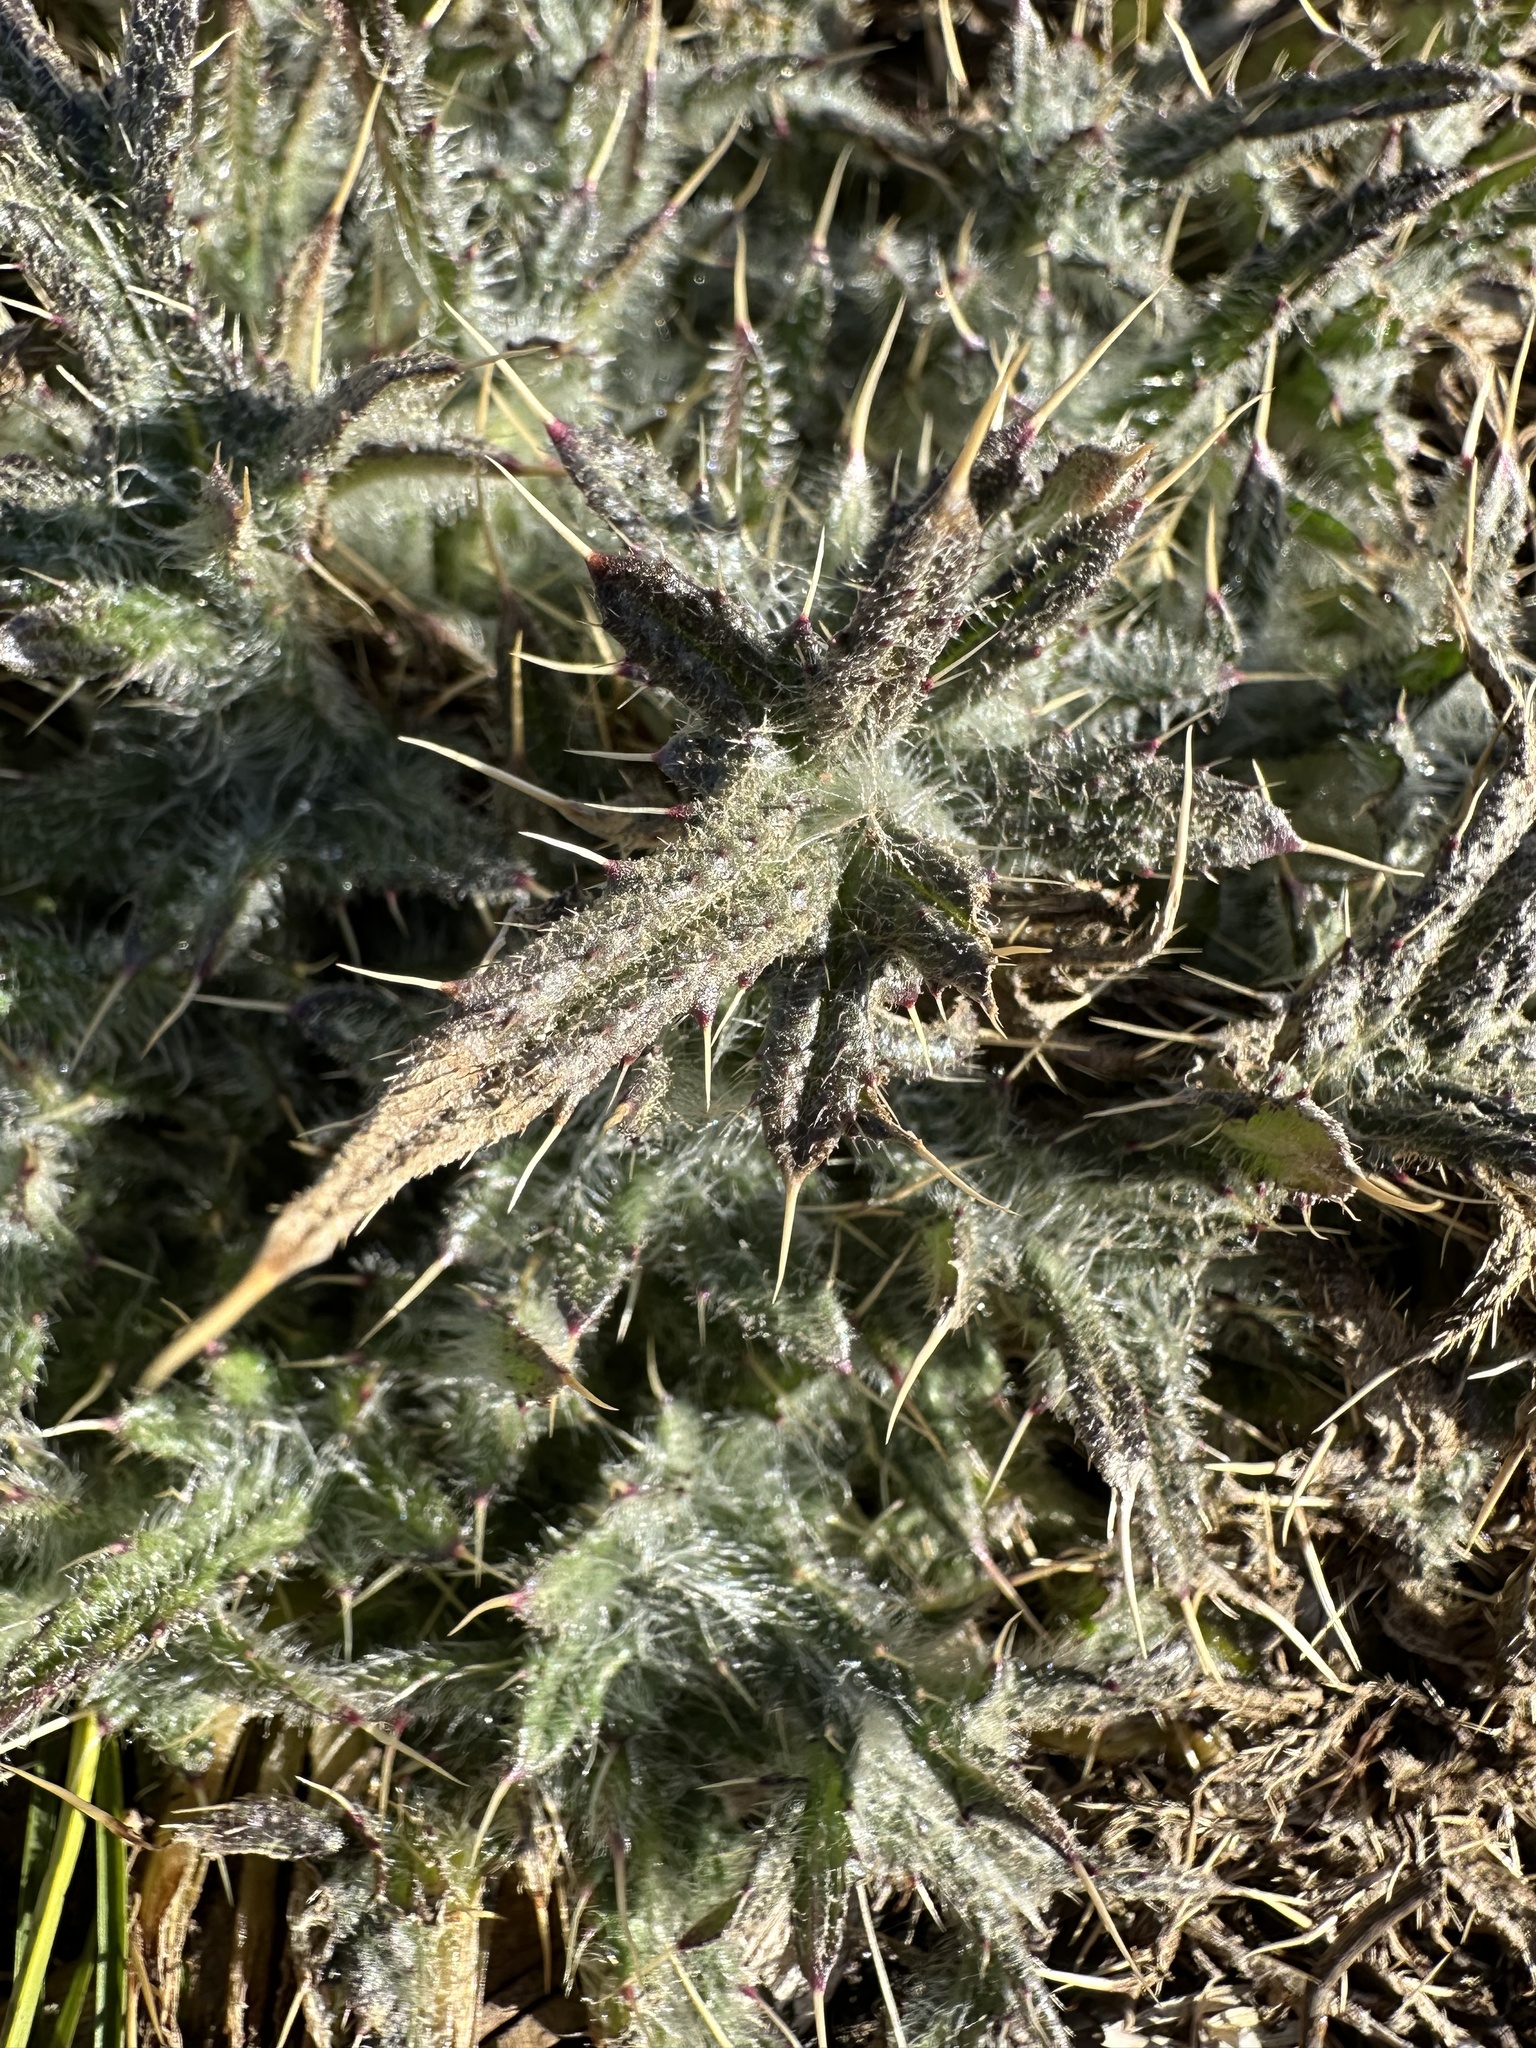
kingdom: Plantae
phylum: Tracheophyta
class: Magnoliopsida
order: Asterales
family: Asteraceae
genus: Cirsium
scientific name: Cirsium vulgare
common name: Bull thistle
